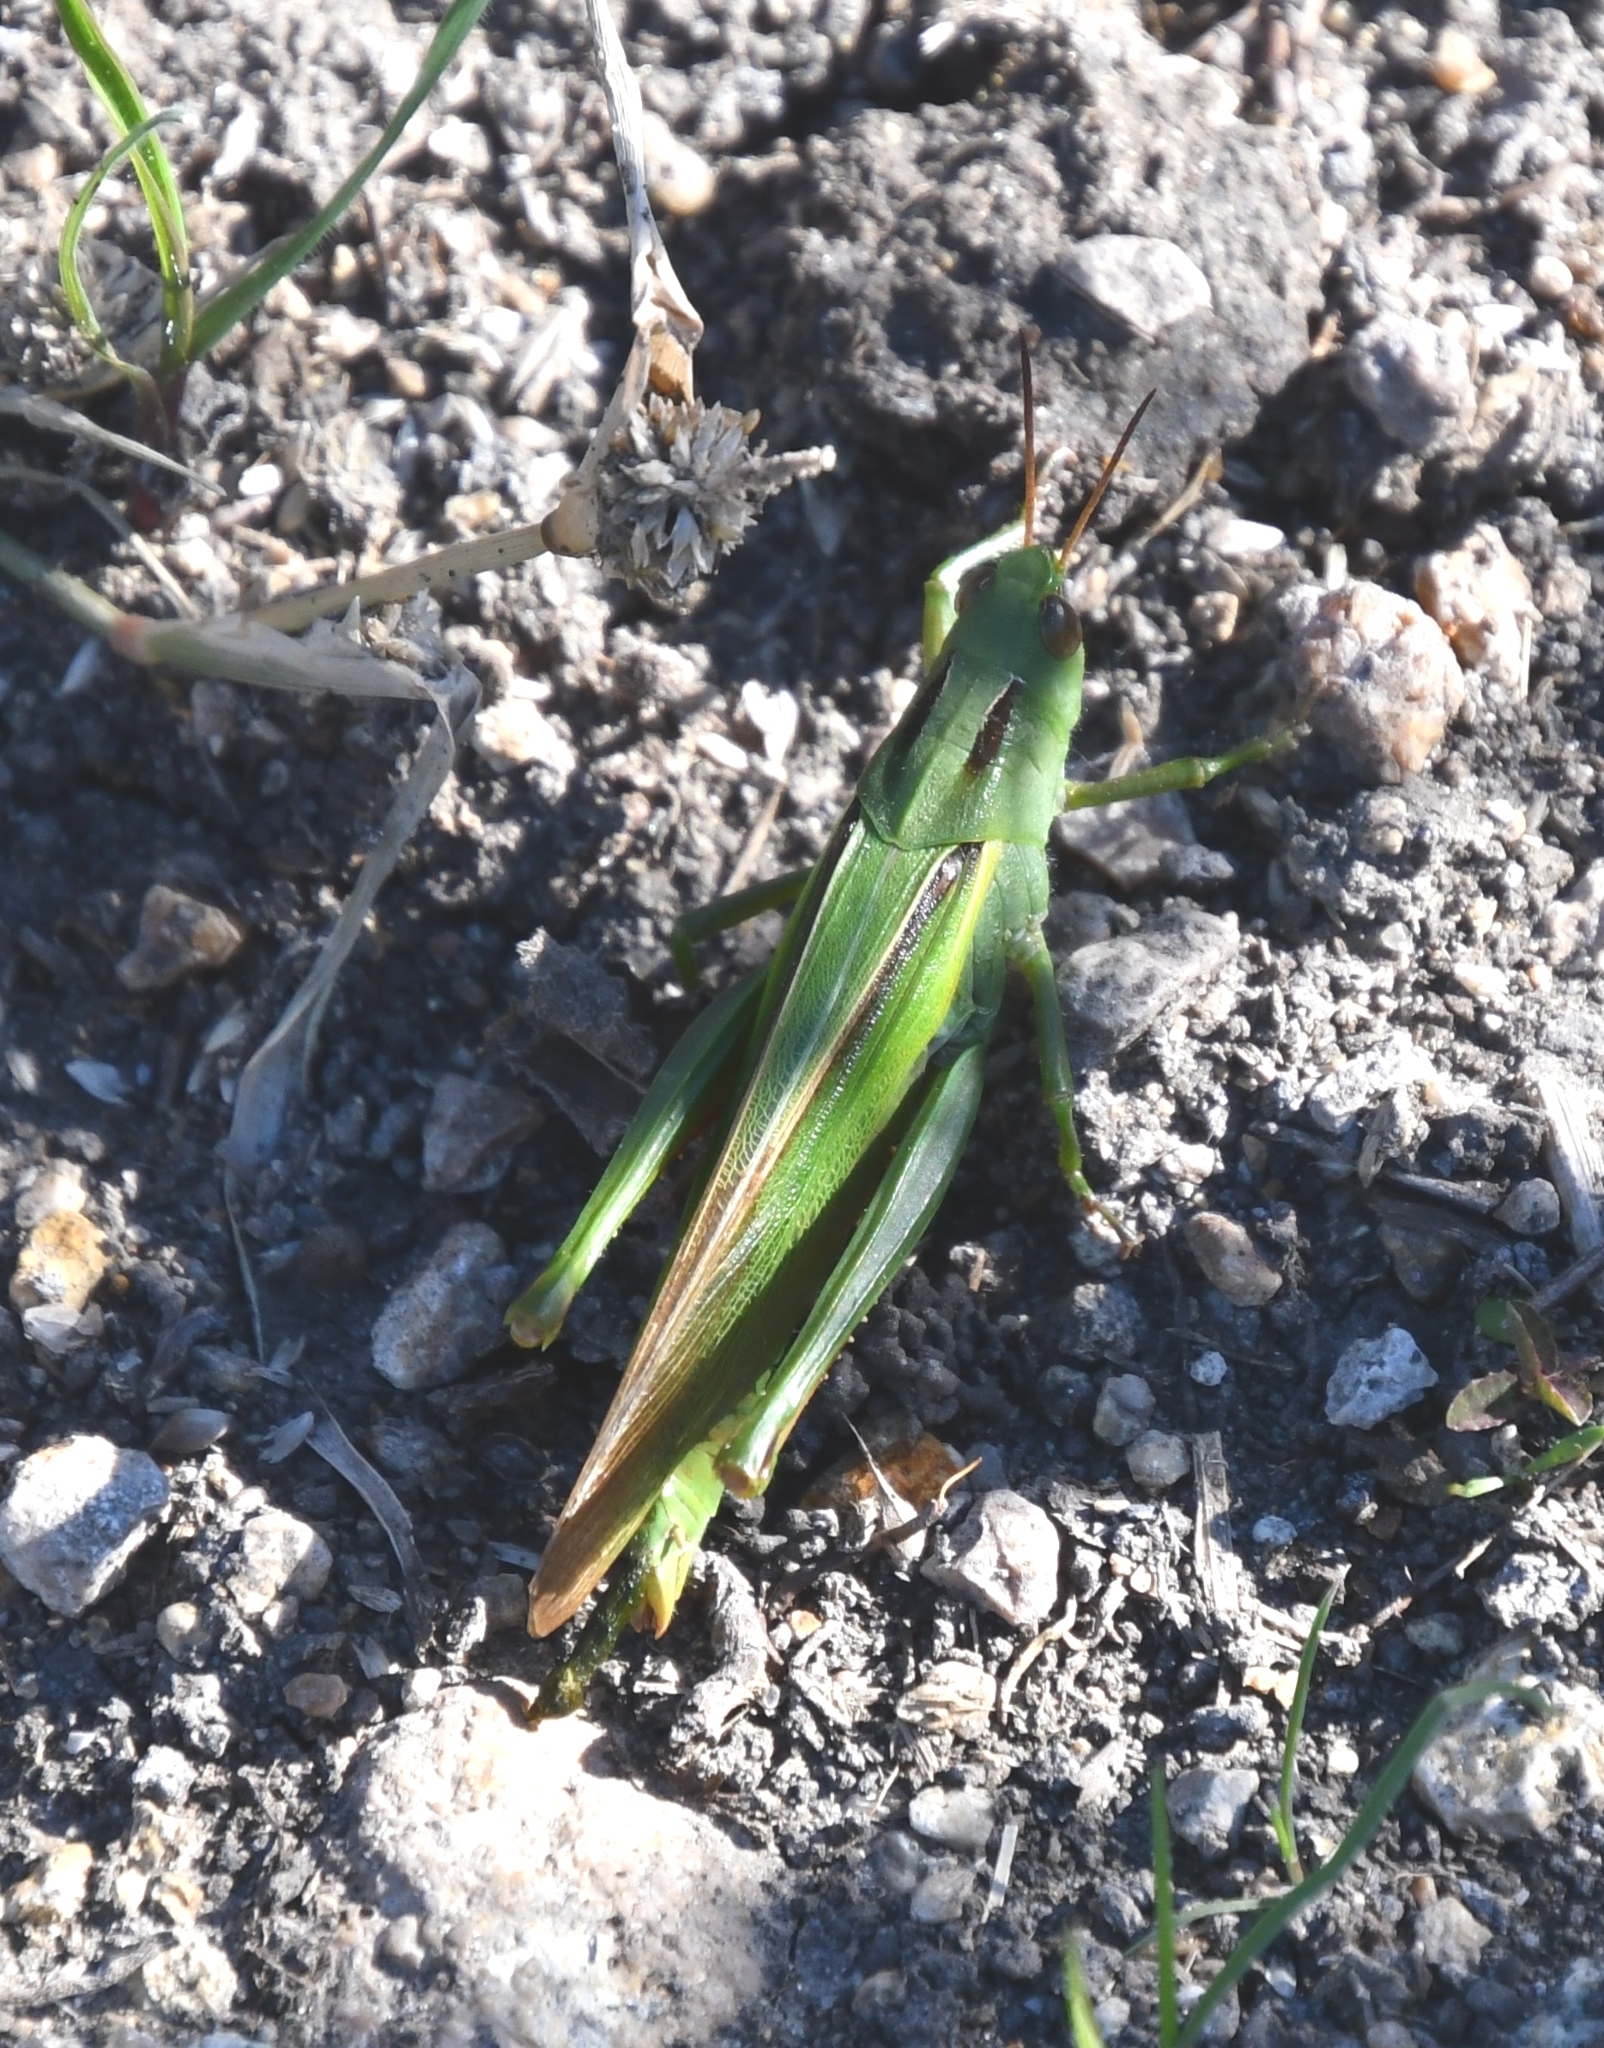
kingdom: Animalia
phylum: Arthropoda
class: Insecta
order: Orthoptera
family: Acrididae
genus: Paracinema
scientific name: Paracinema tricolor
